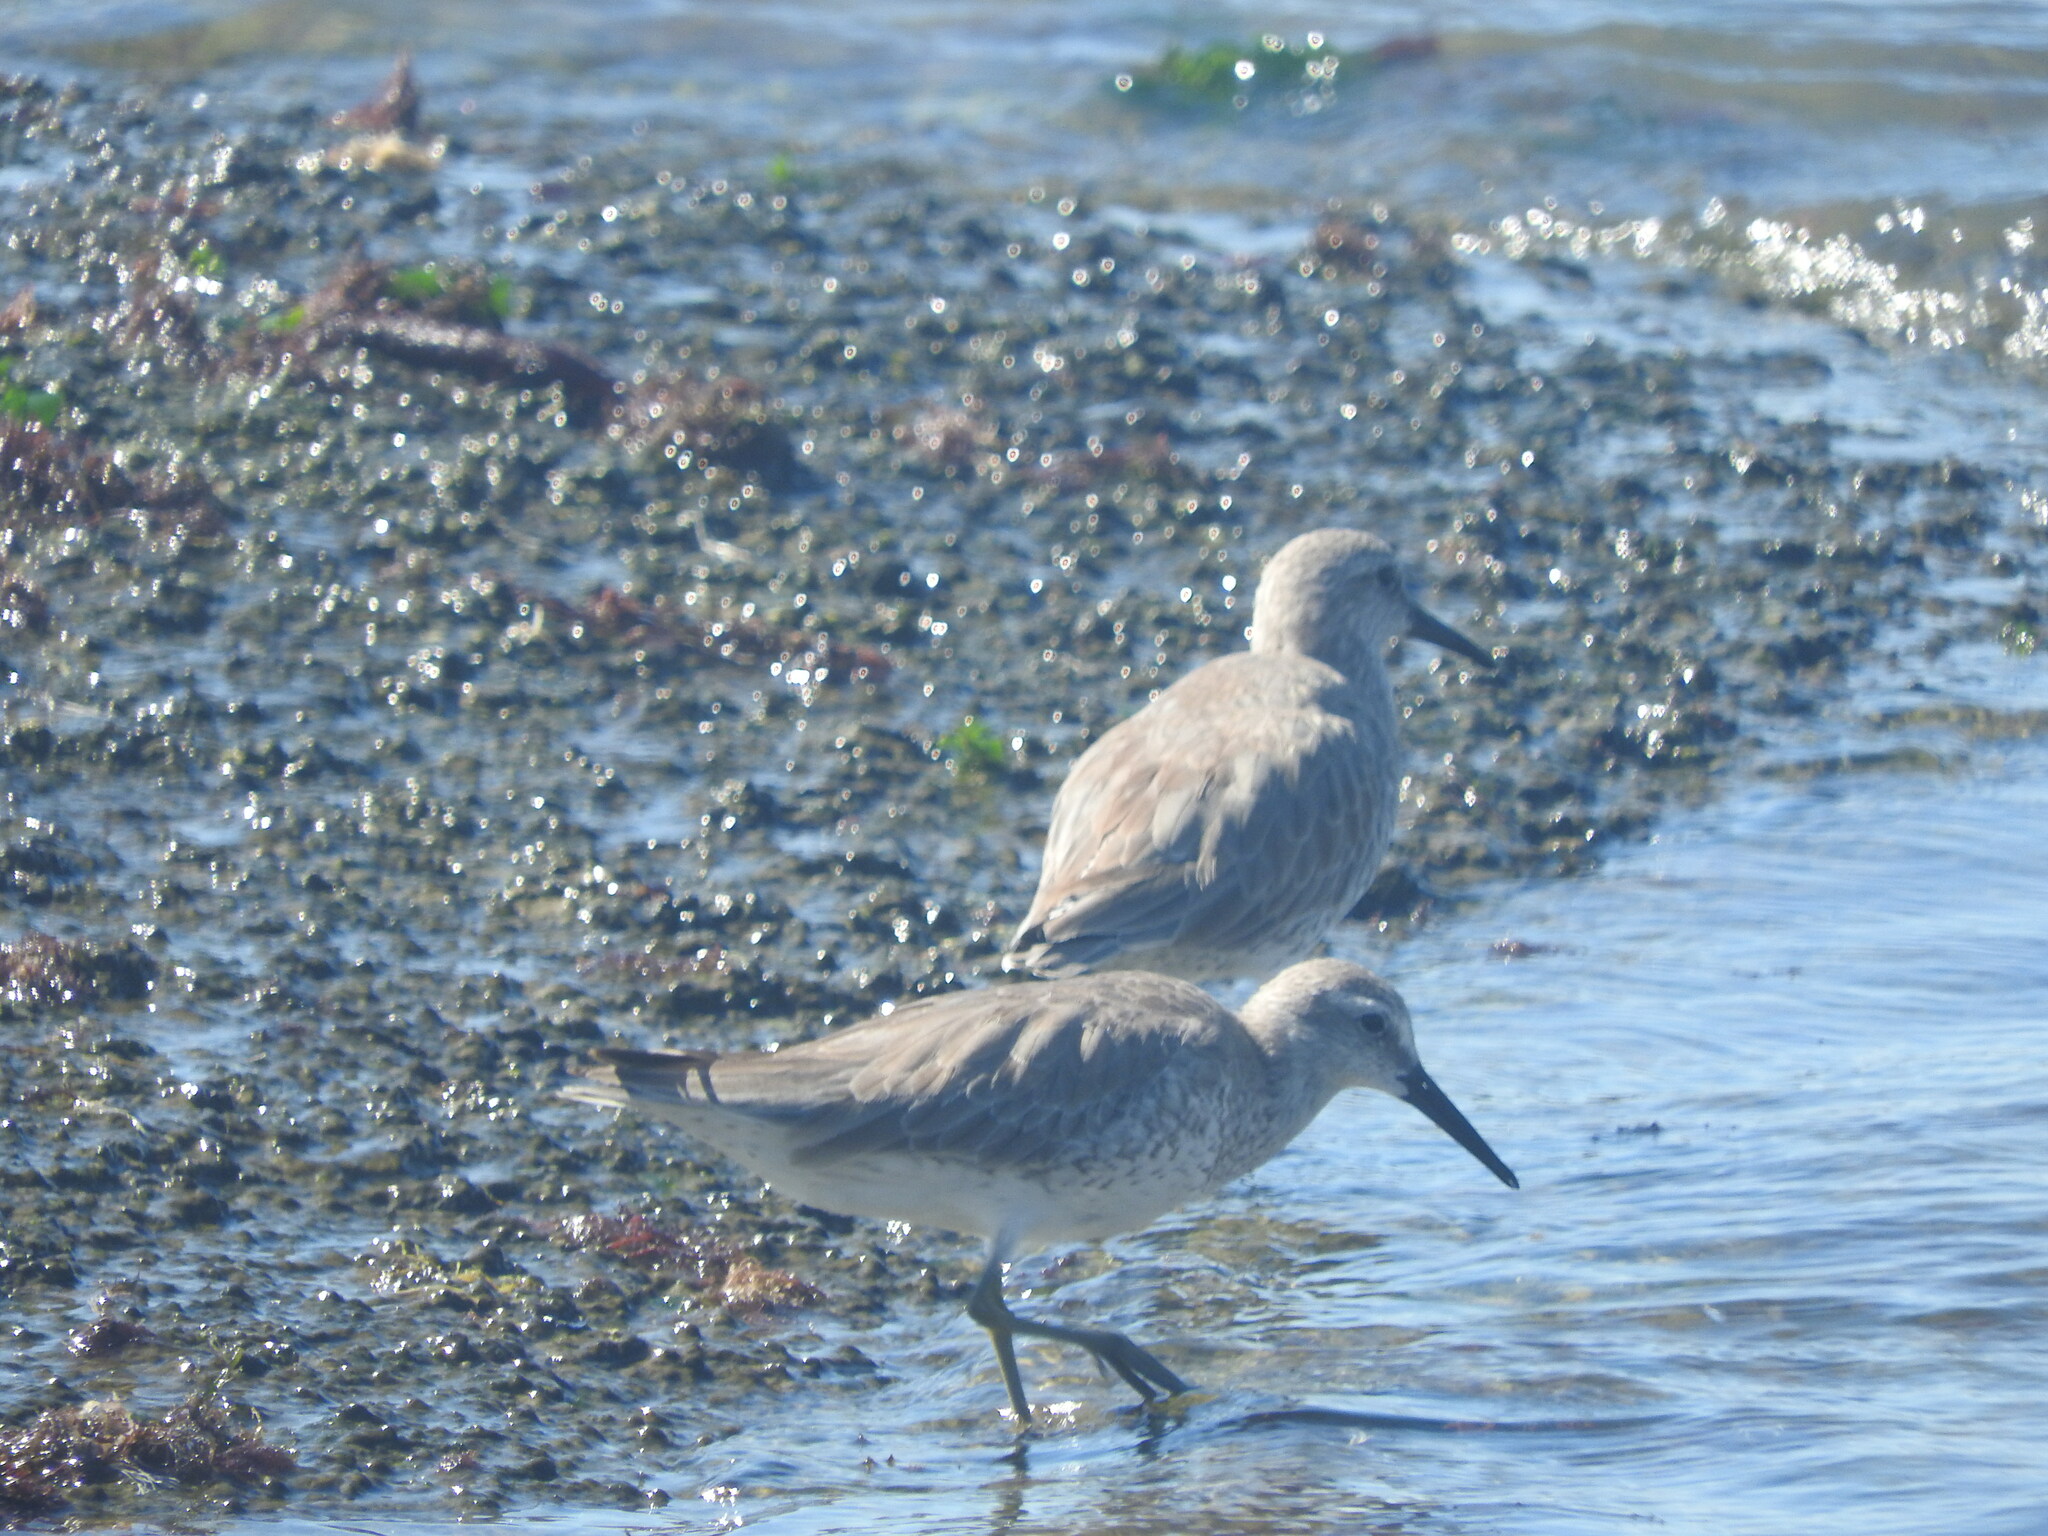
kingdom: Animalia
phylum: Chordata
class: Aves
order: Charadriiformes
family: Scolopacidae
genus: Calidris
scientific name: Calidris canutus
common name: Red knot
